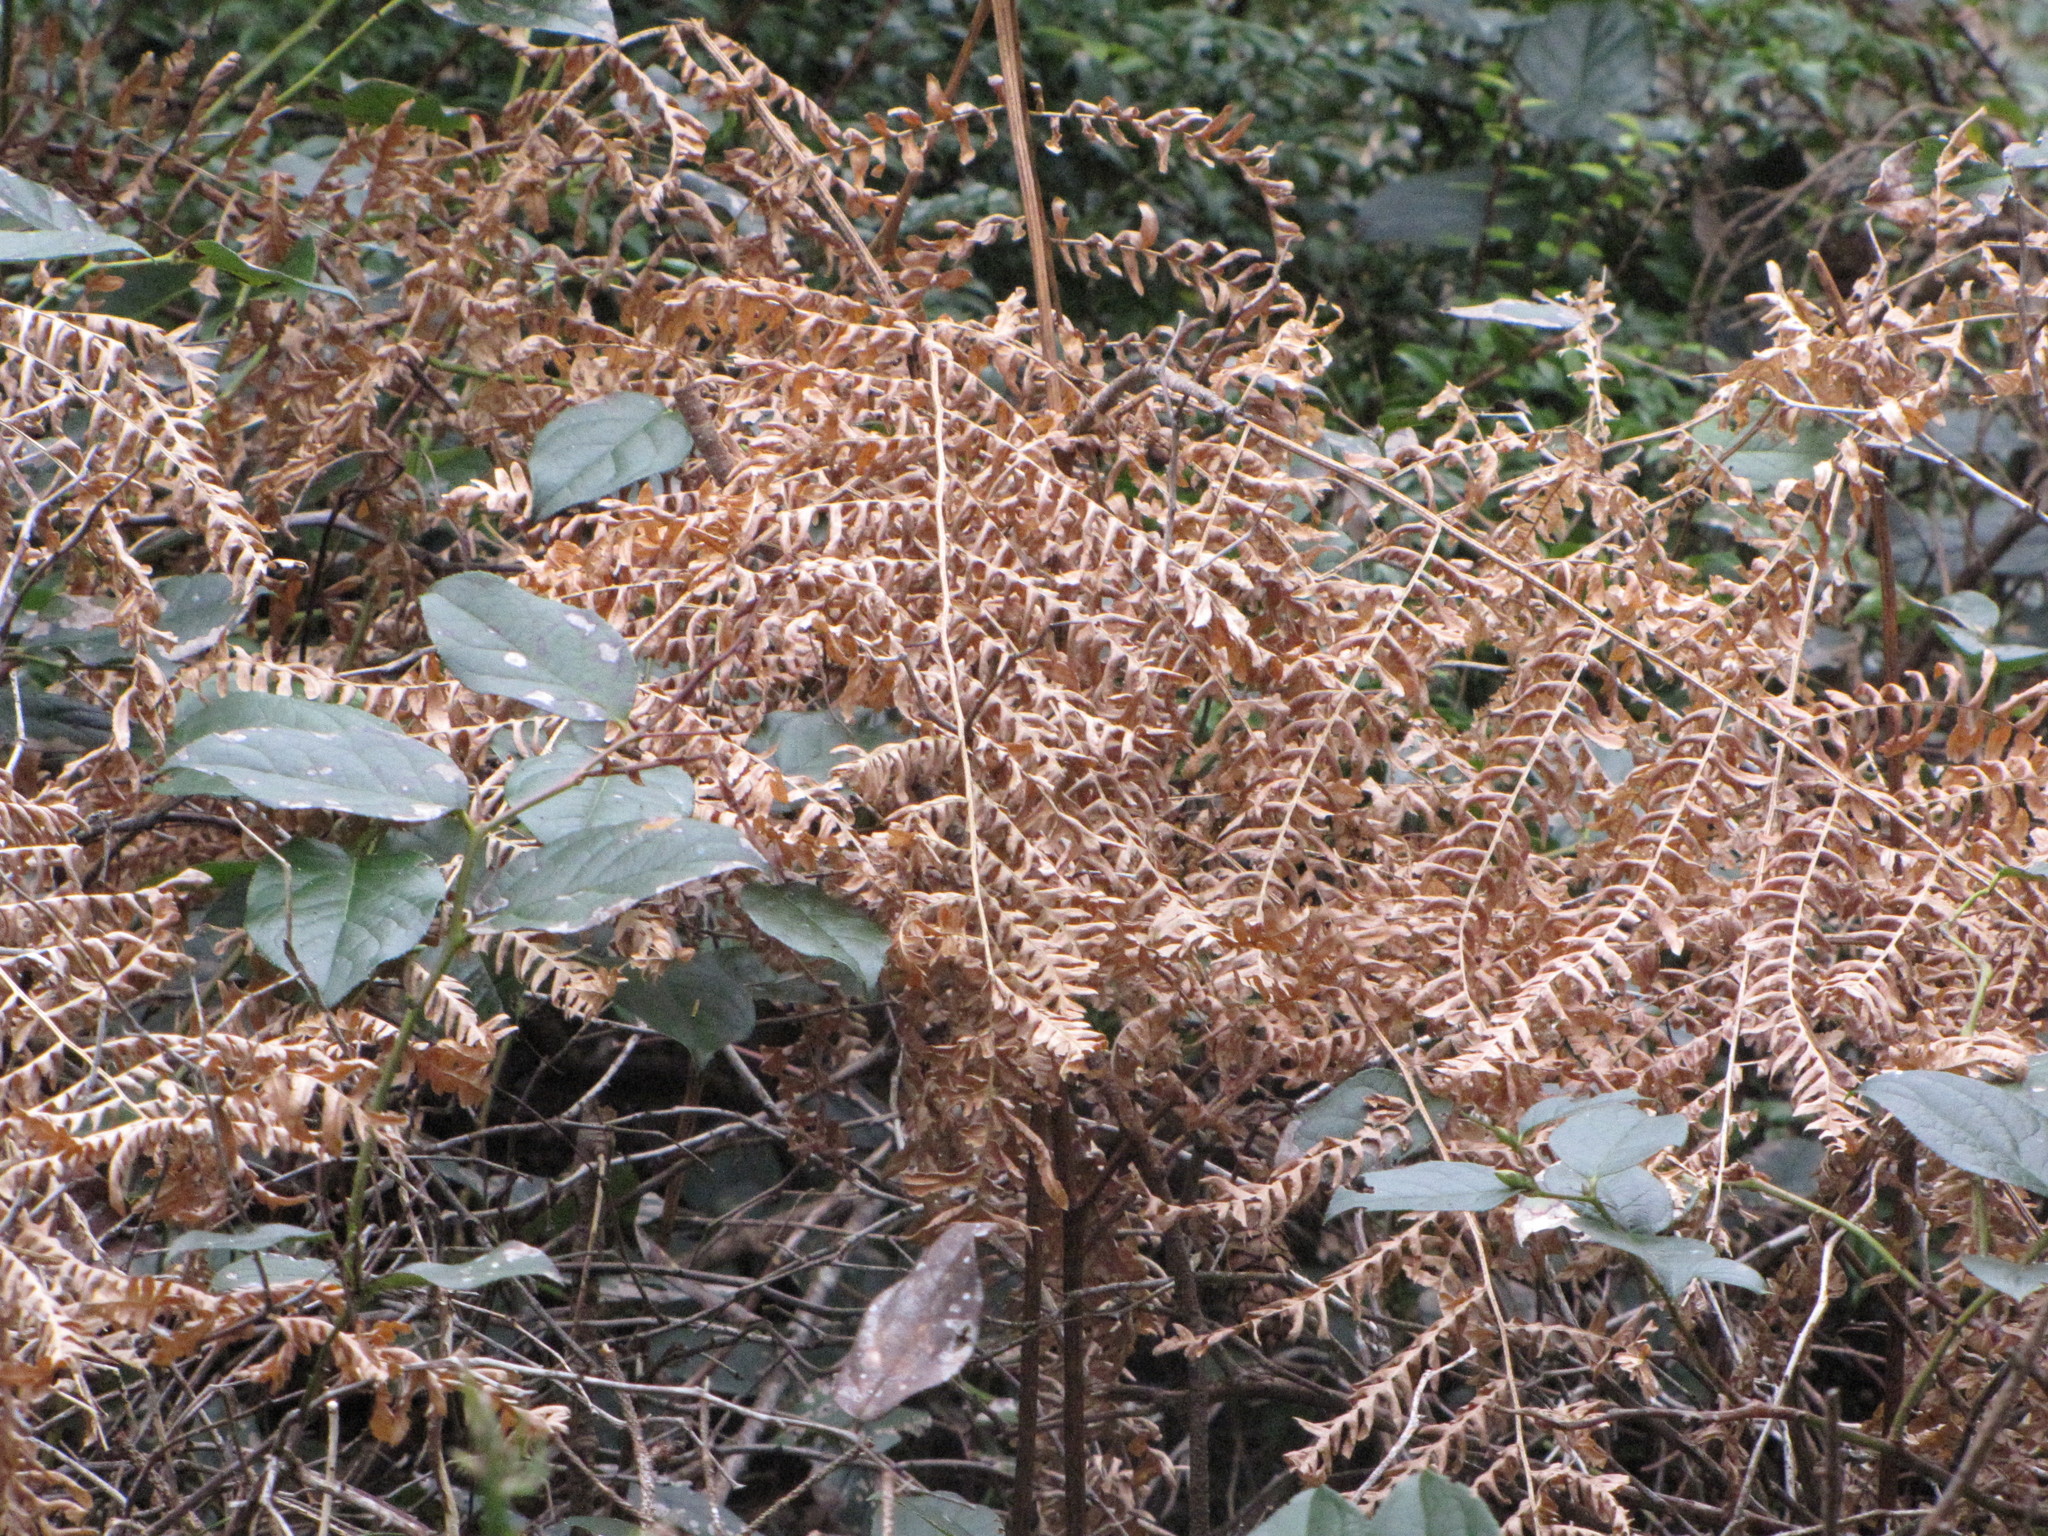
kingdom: Plantae
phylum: Tracheophyta
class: Polypodiopsida
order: Polypodiales
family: Dennstaedtiaceae
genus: Pteridium
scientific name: Pteridium aquilinum
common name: Bracken
